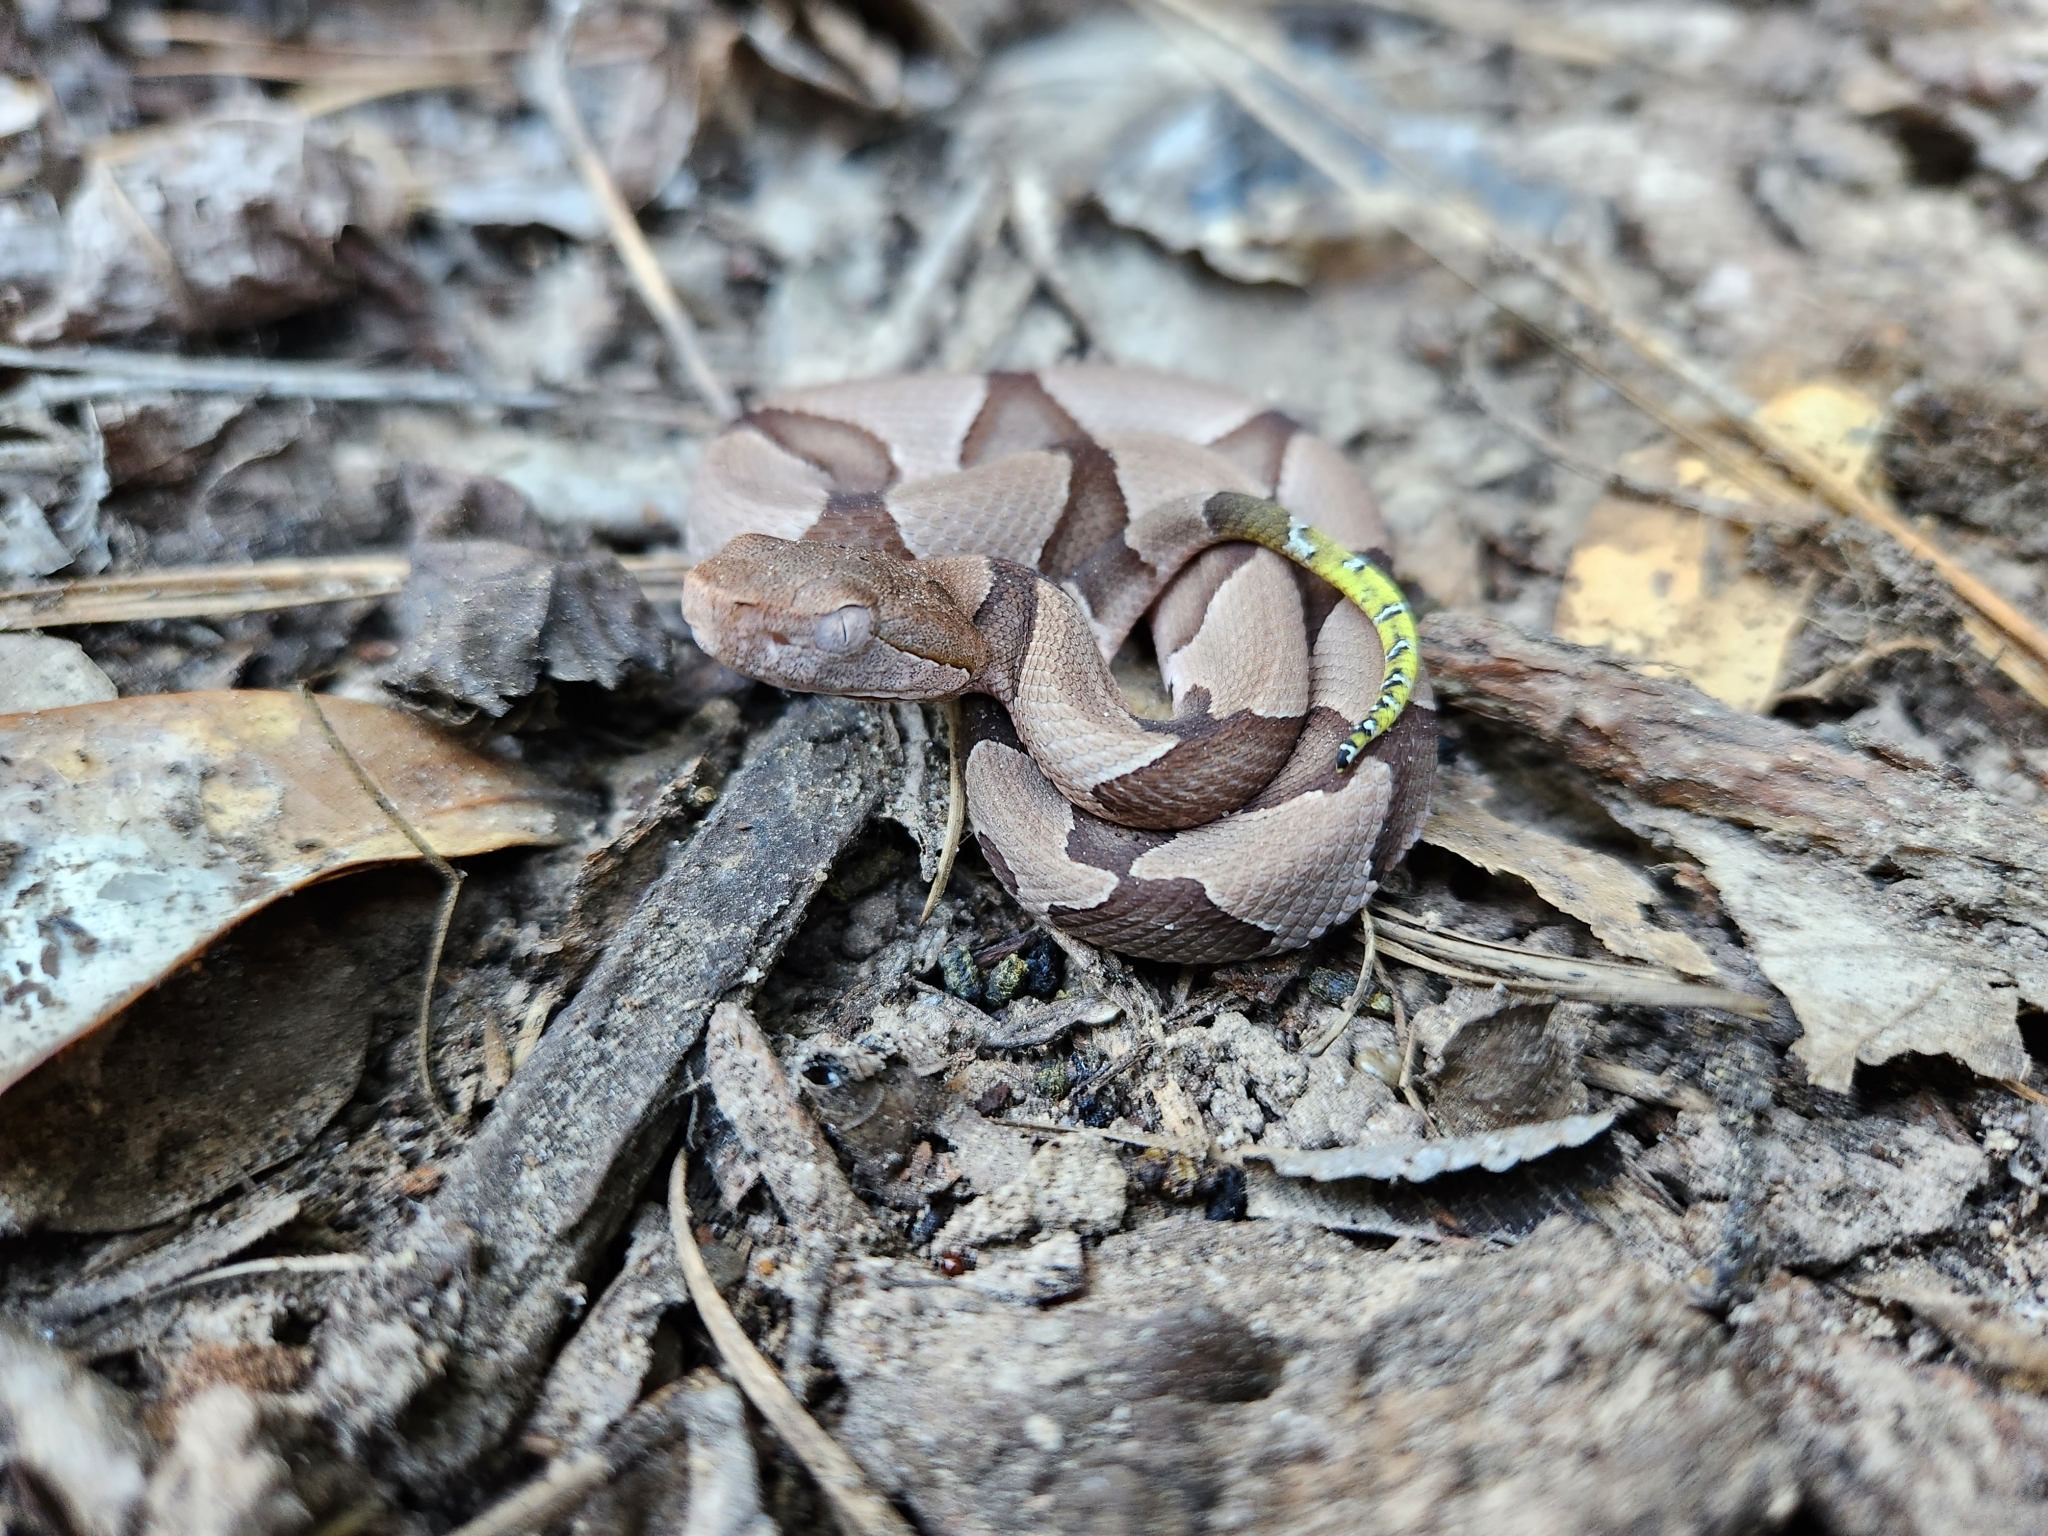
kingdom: Animalia
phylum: Chordata
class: Squamata
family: Viperidae
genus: Agkistrodon
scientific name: Agkistrodon contortrix
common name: Northern copperhead
